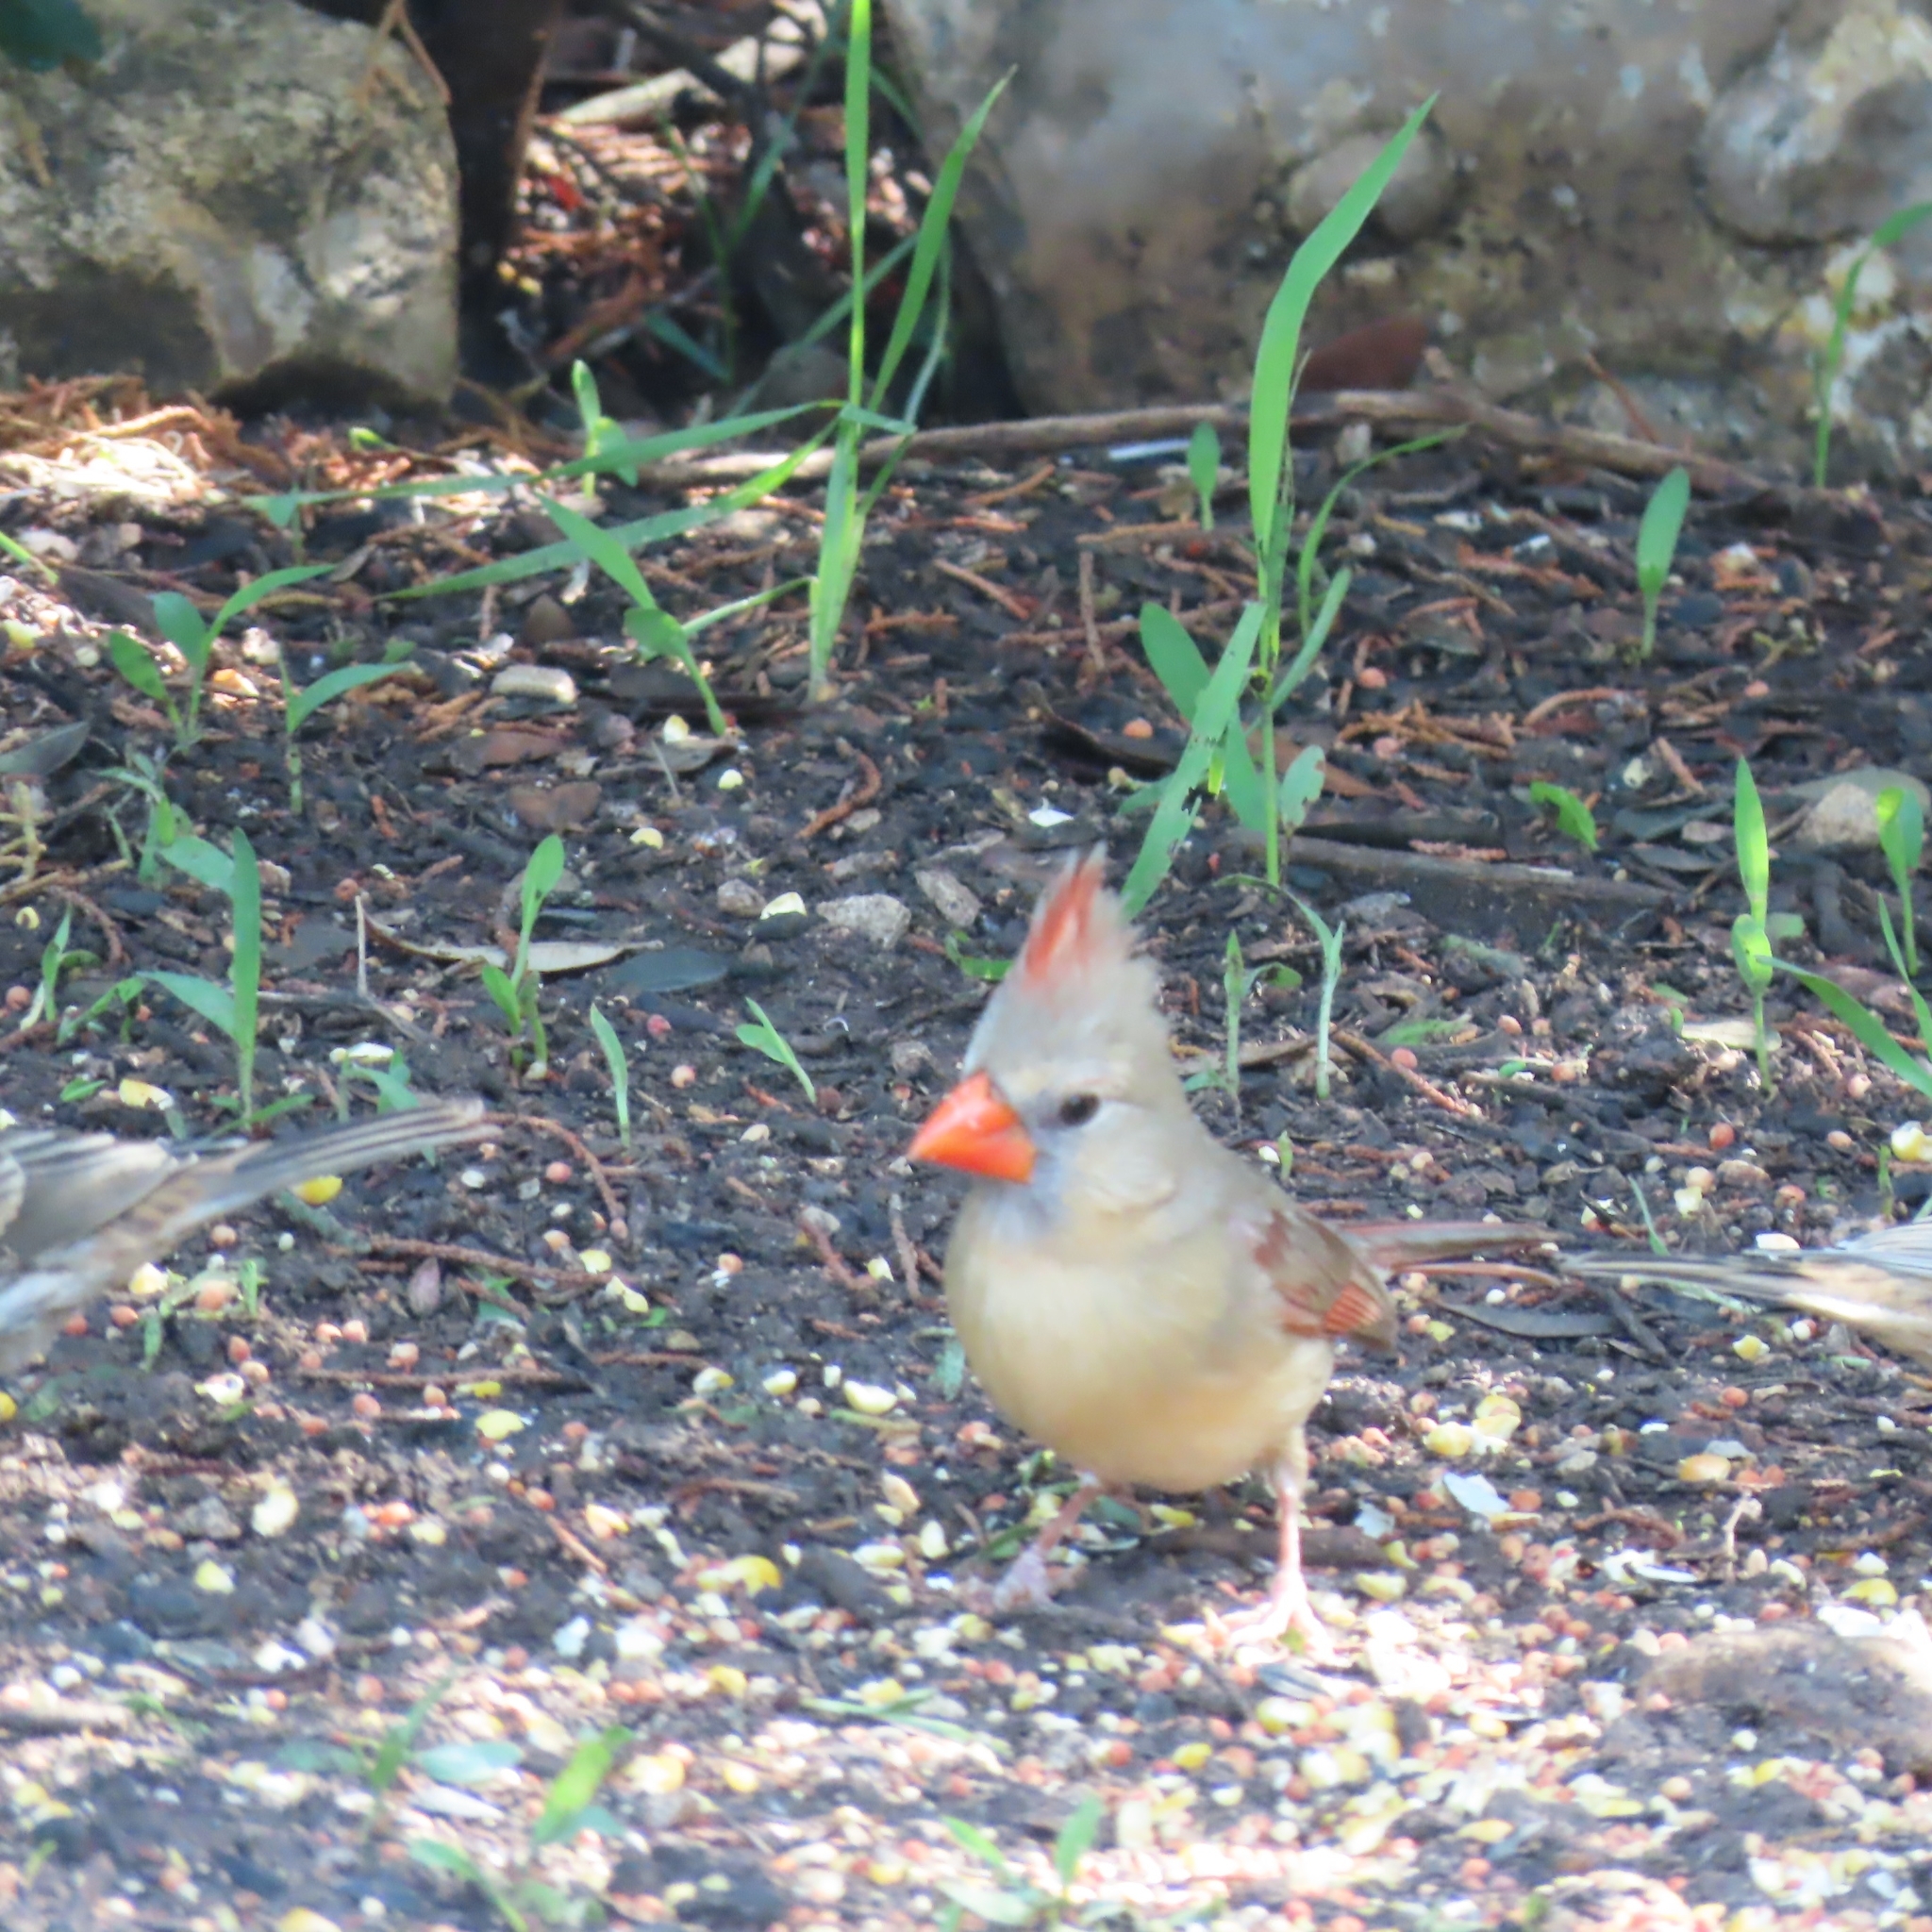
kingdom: Animalia
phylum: Chordata
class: Aves
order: Passeriformes
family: Cardinalidae
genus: Cardinalis
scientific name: Cardinalis cardinalis
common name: Northern cardinal
